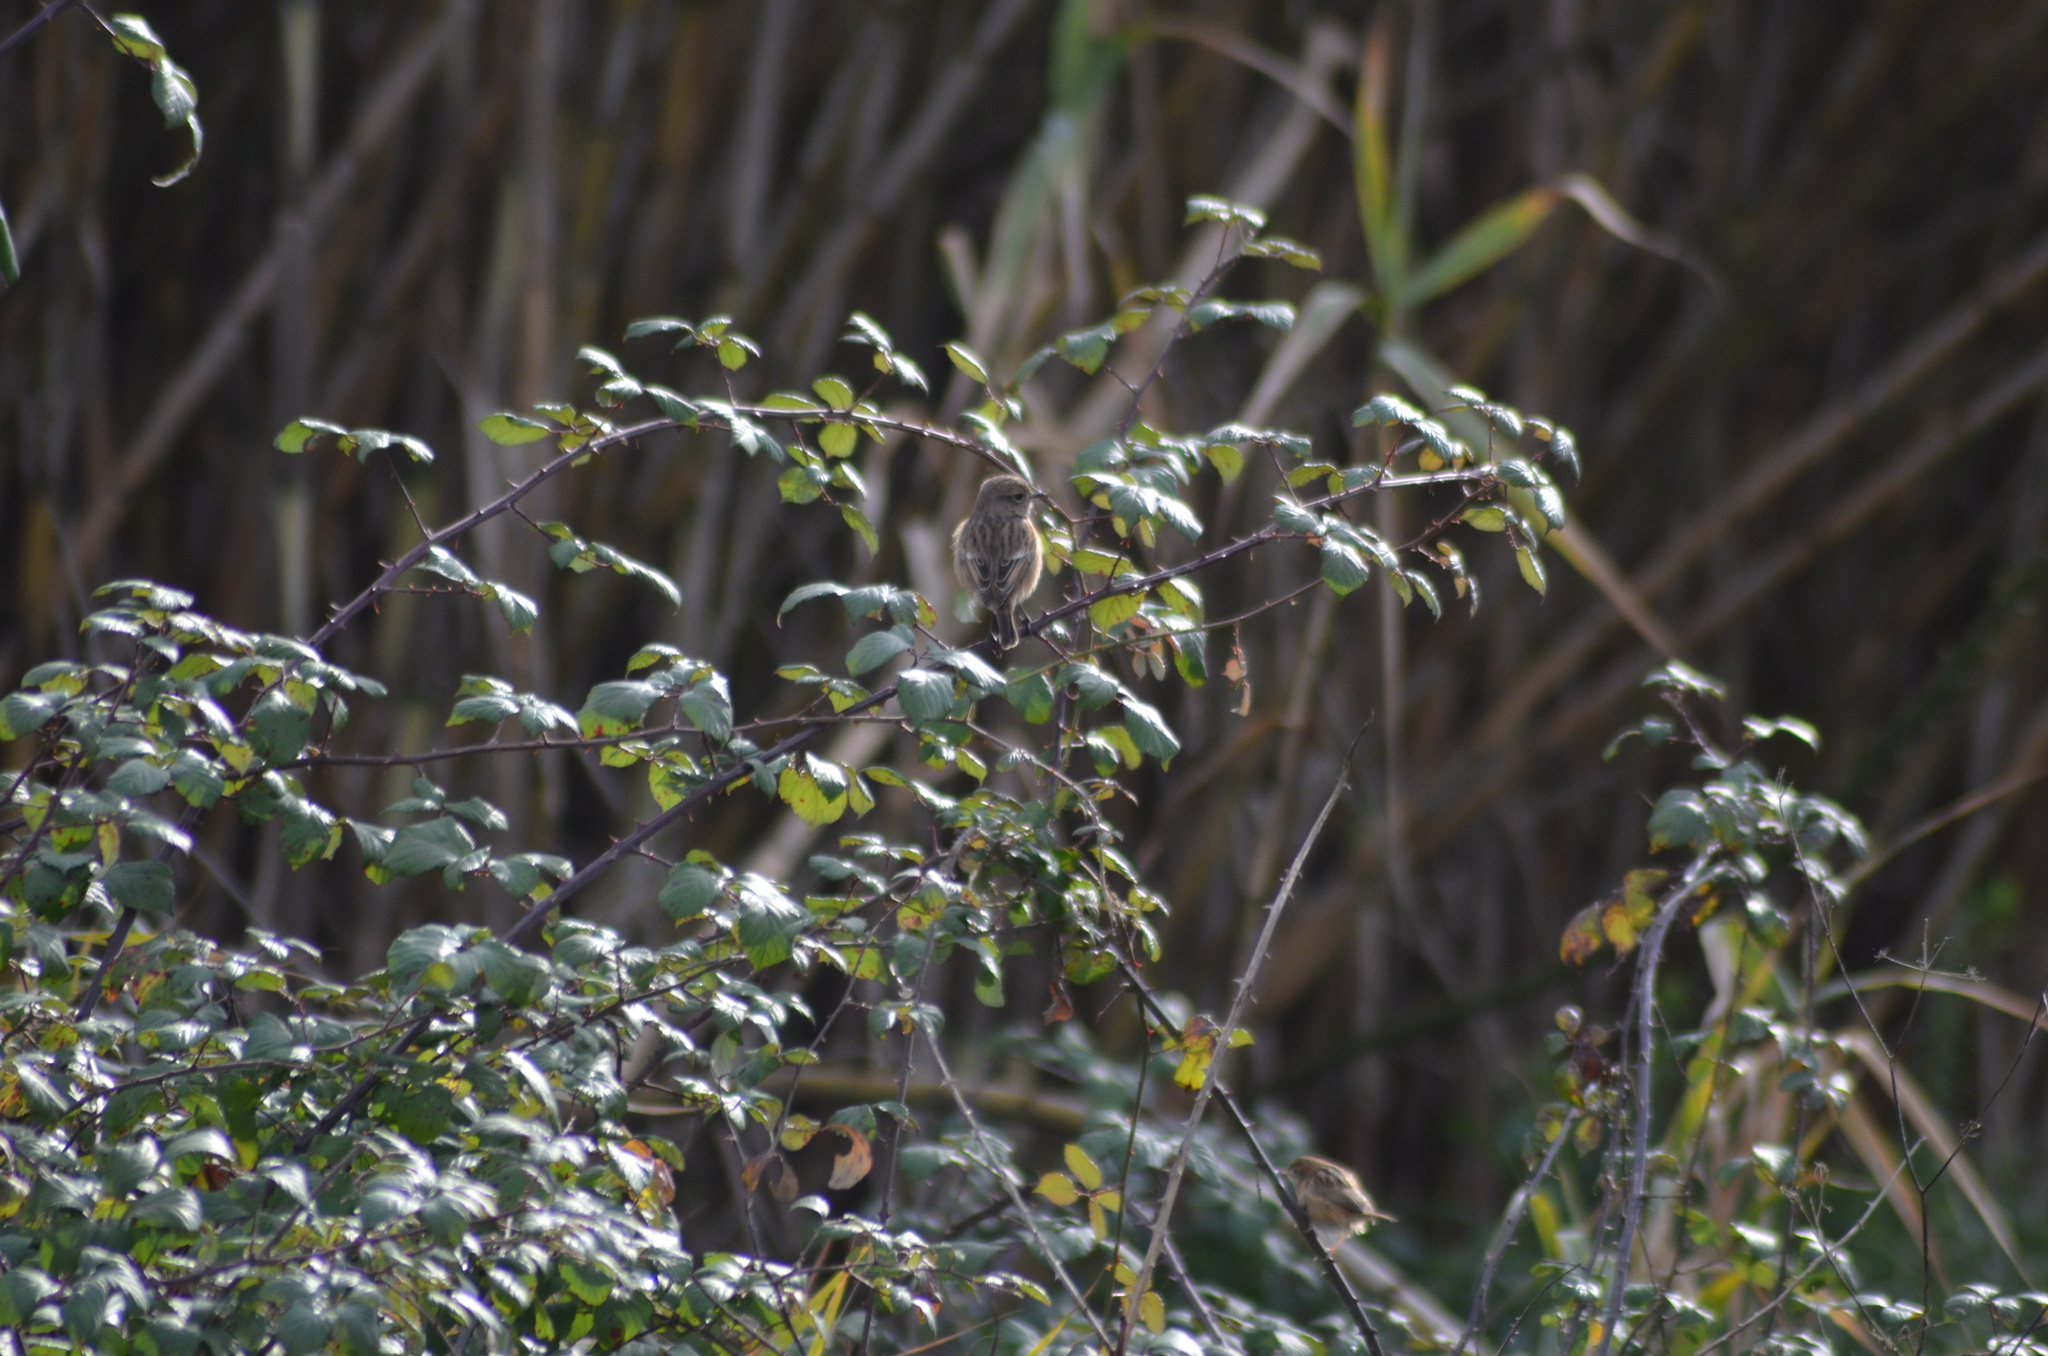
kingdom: Animalia
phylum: Chordata
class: Aves
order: Passeriformes
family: Muscicapidae
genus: Saxicola
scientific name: Saxicola rubicola
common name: European stonechat
